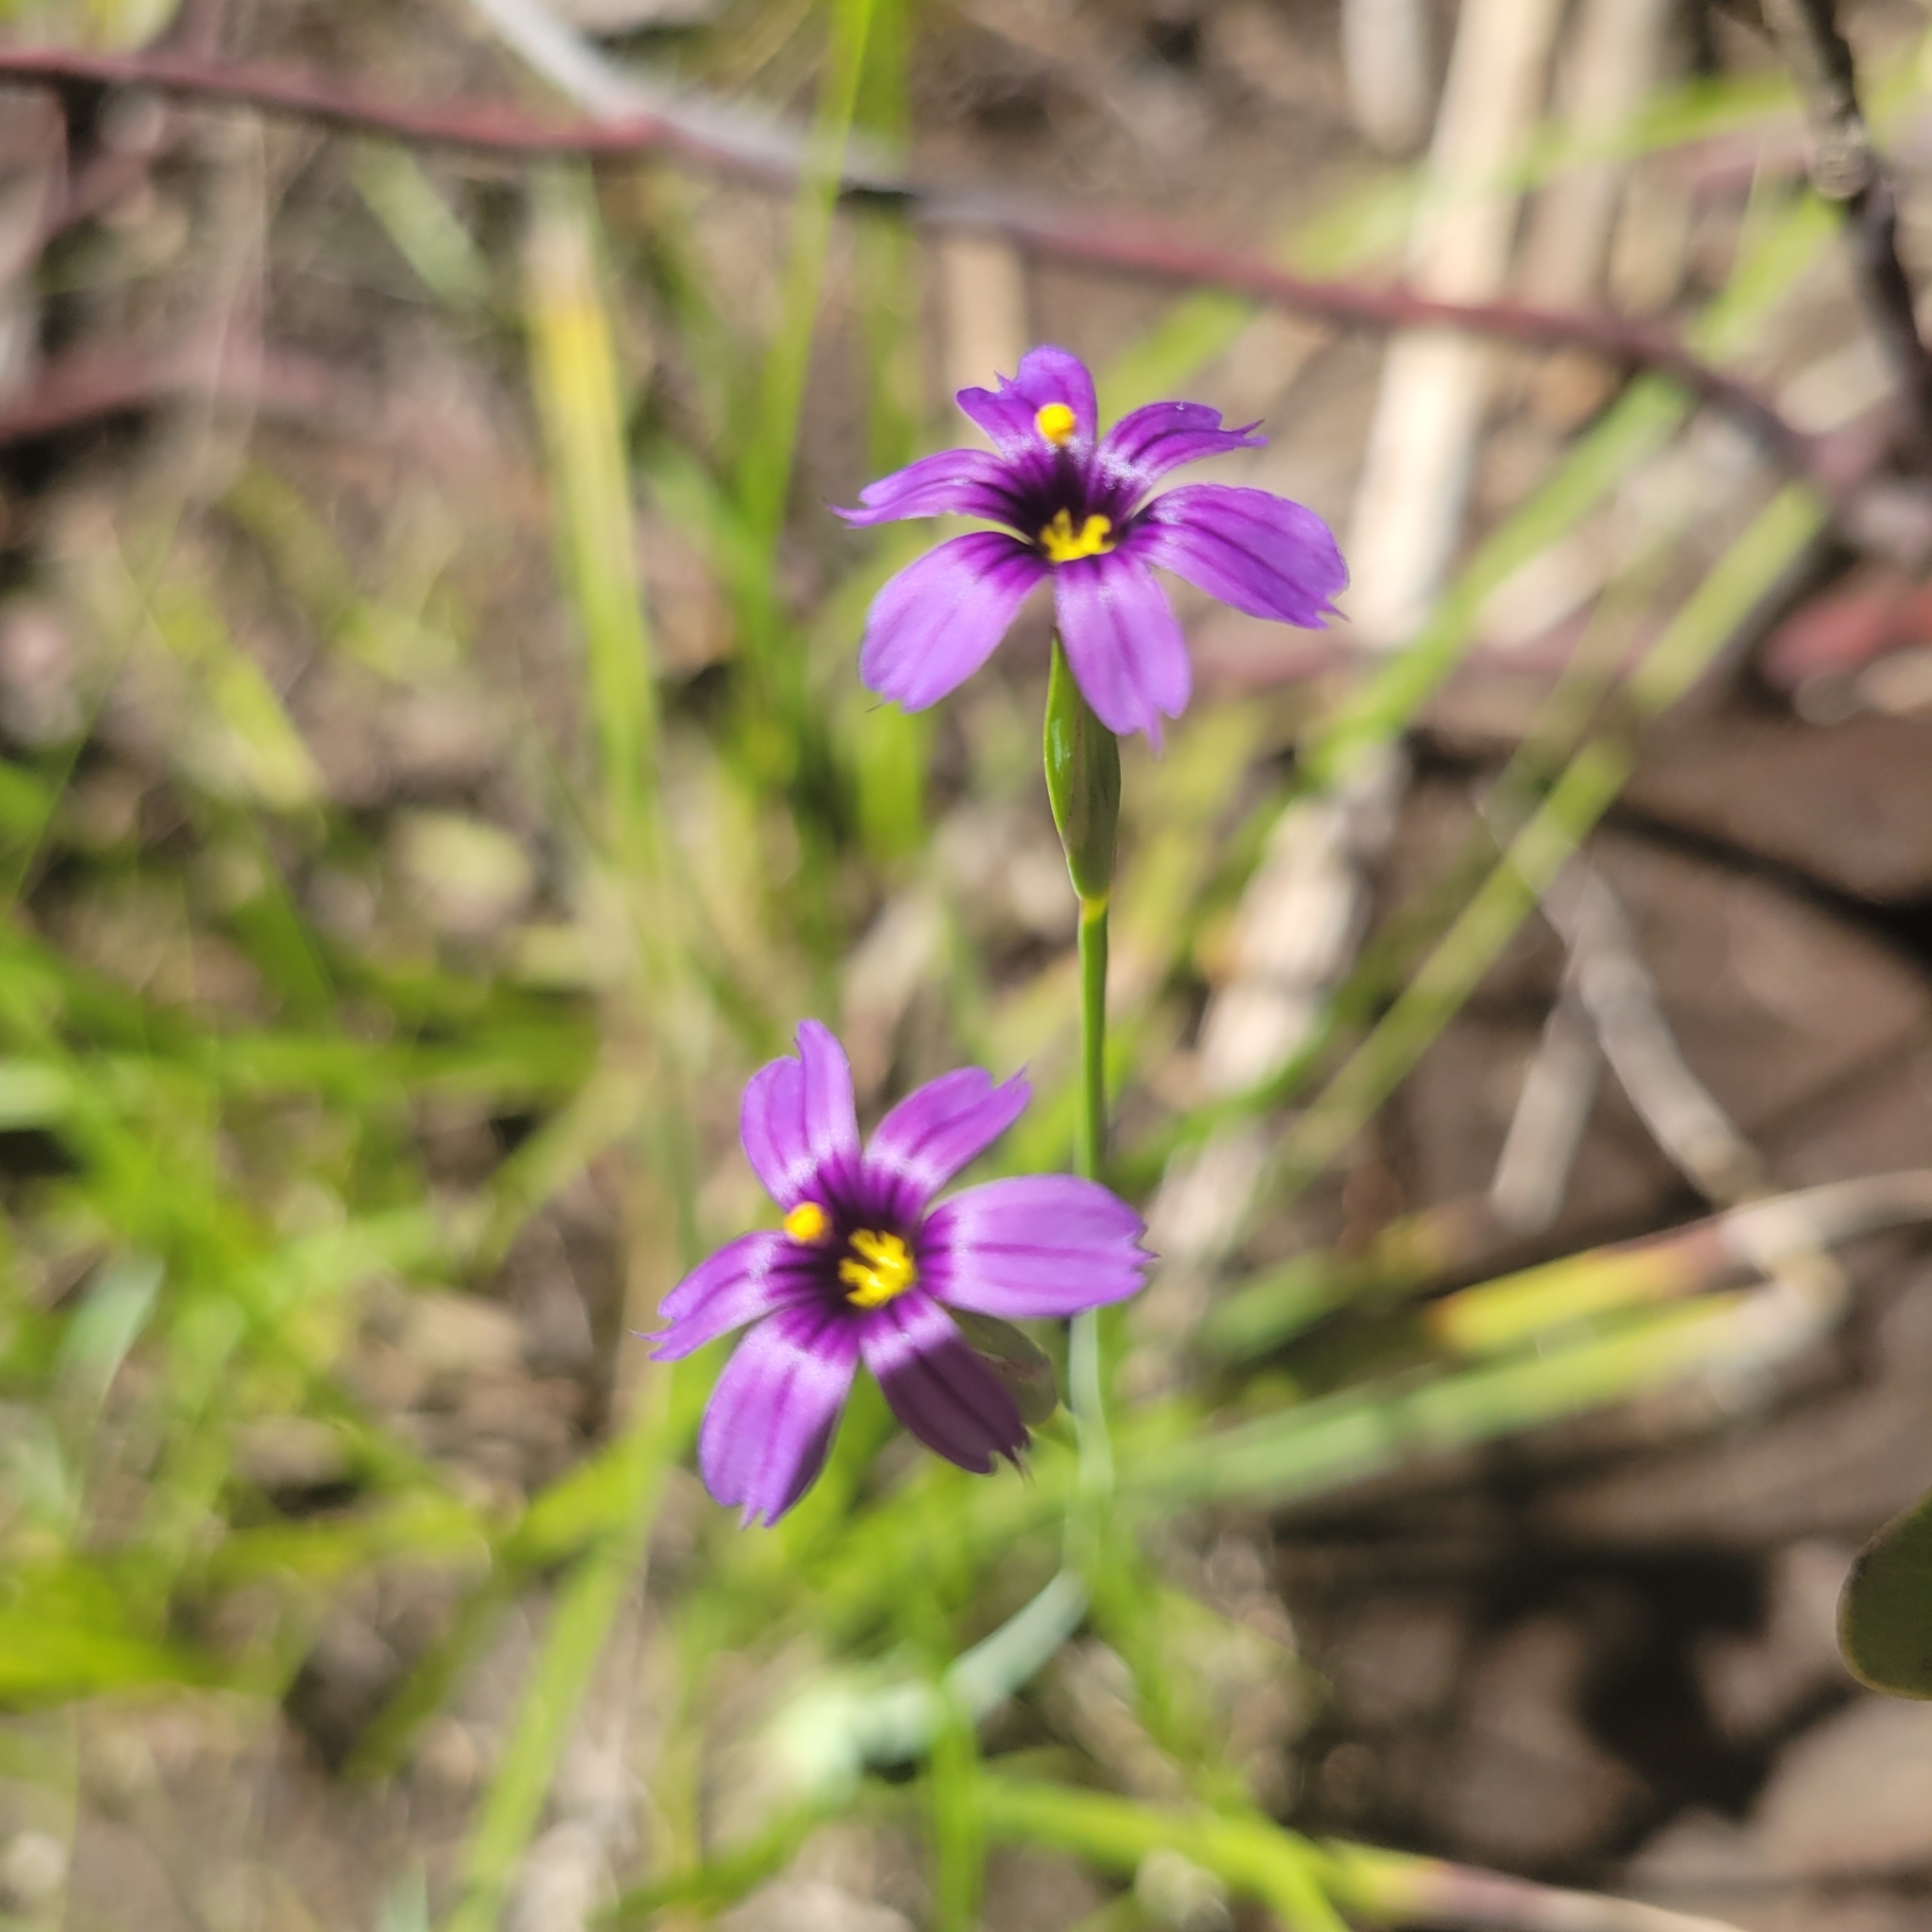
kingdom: Plantae
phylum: Tracheophyta
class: Liliopsida
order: Asparagales
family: Iridaceae
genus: Sisyrinchium
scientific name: Sisyrinchium bellum
